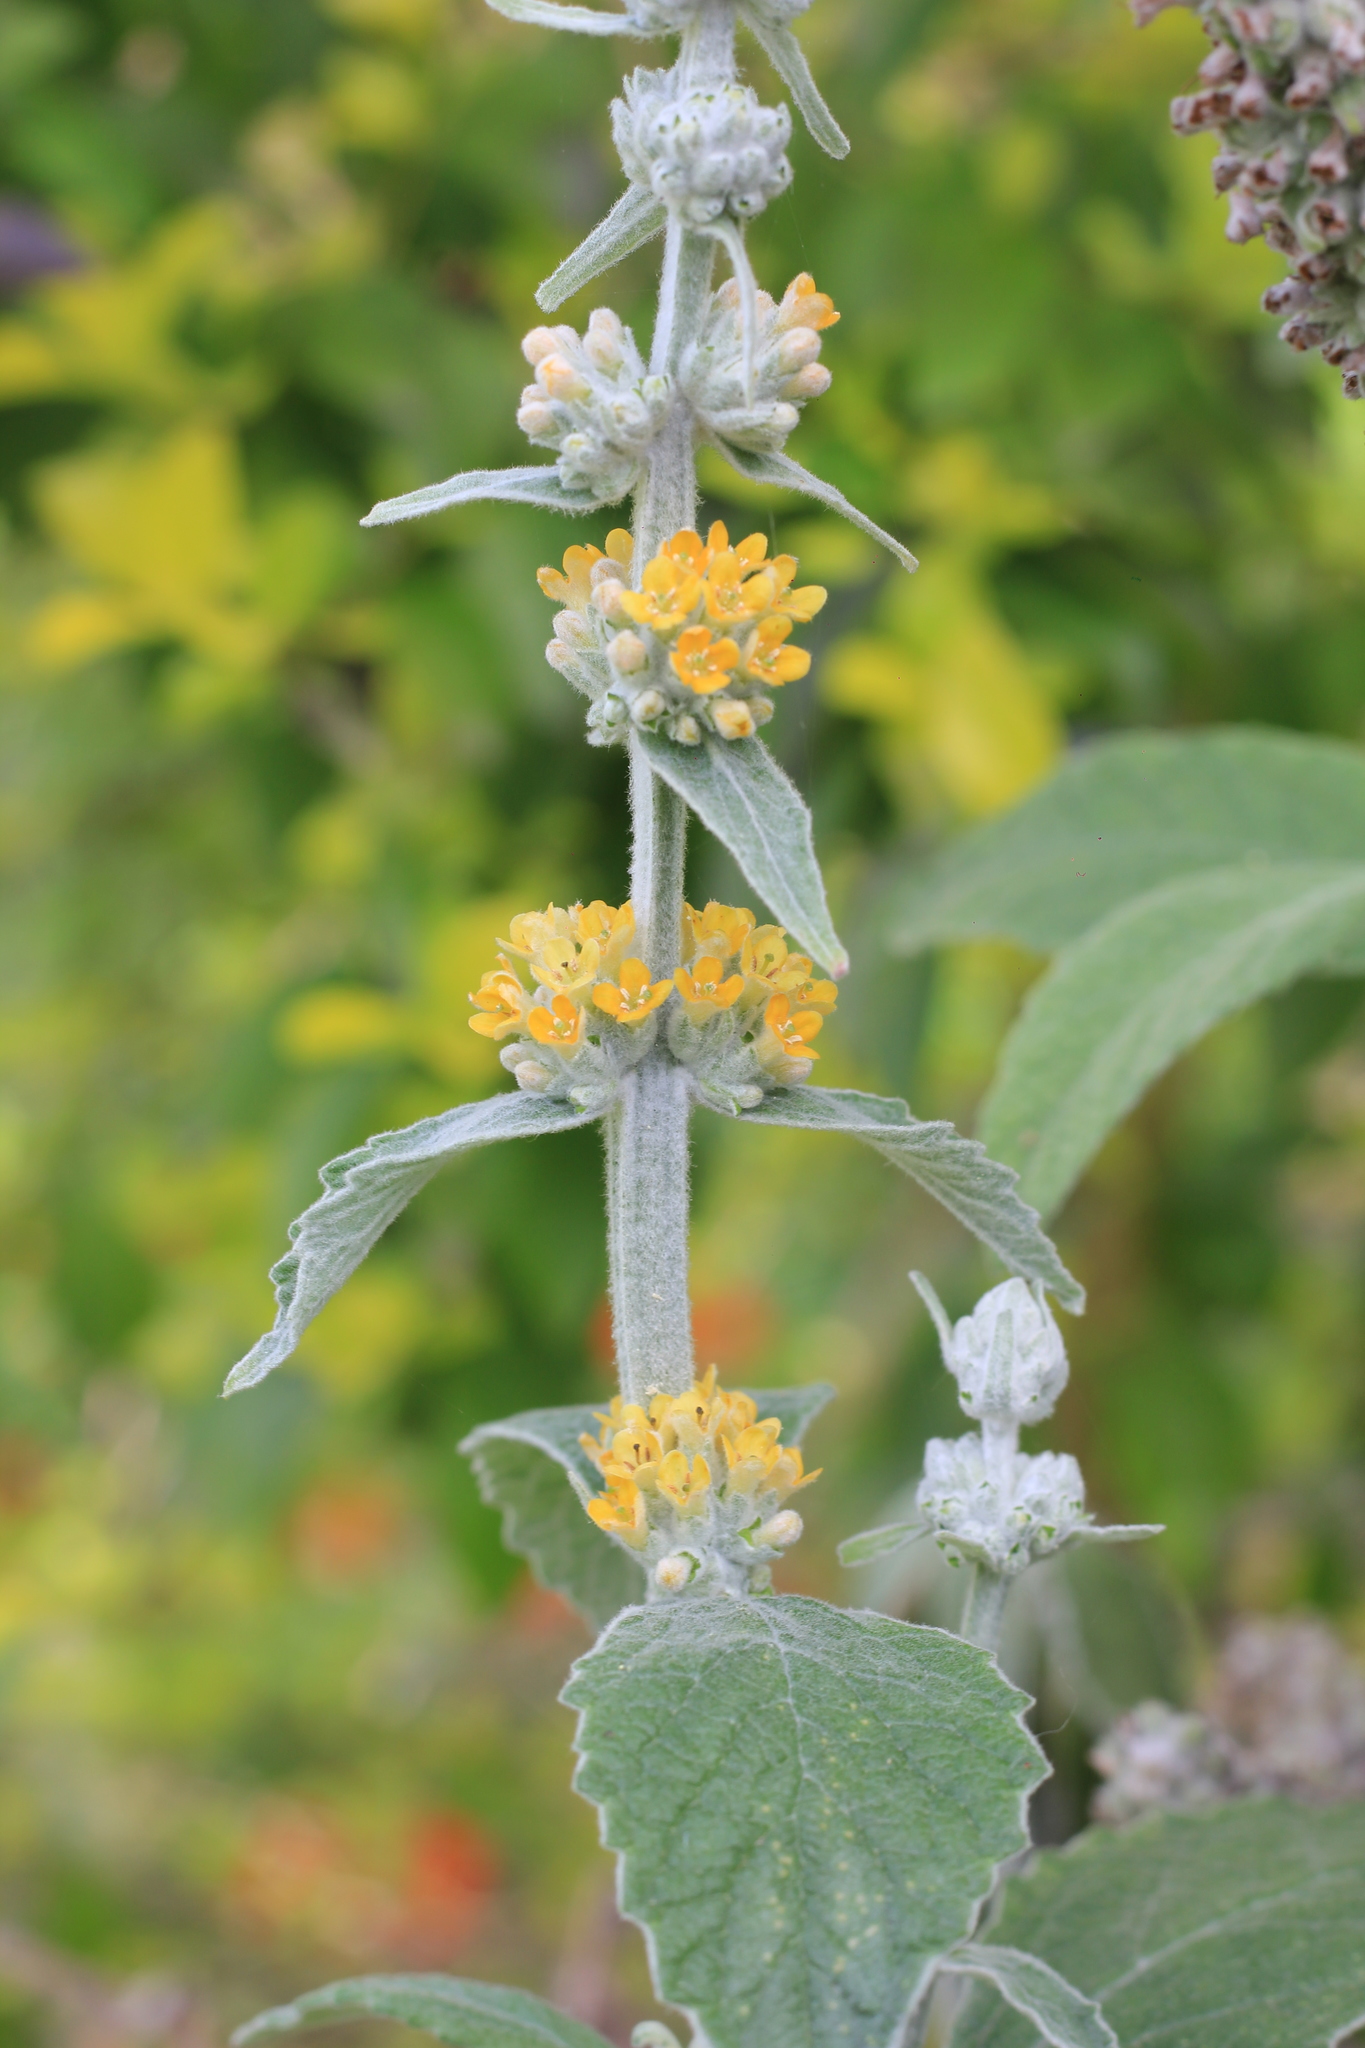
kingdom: Plantae
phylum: Tracheophyta
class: Magnoliopsida
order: Lamiales
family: Scrophulariaceae
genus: Buddleja
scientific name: Buddleja stachyoides
